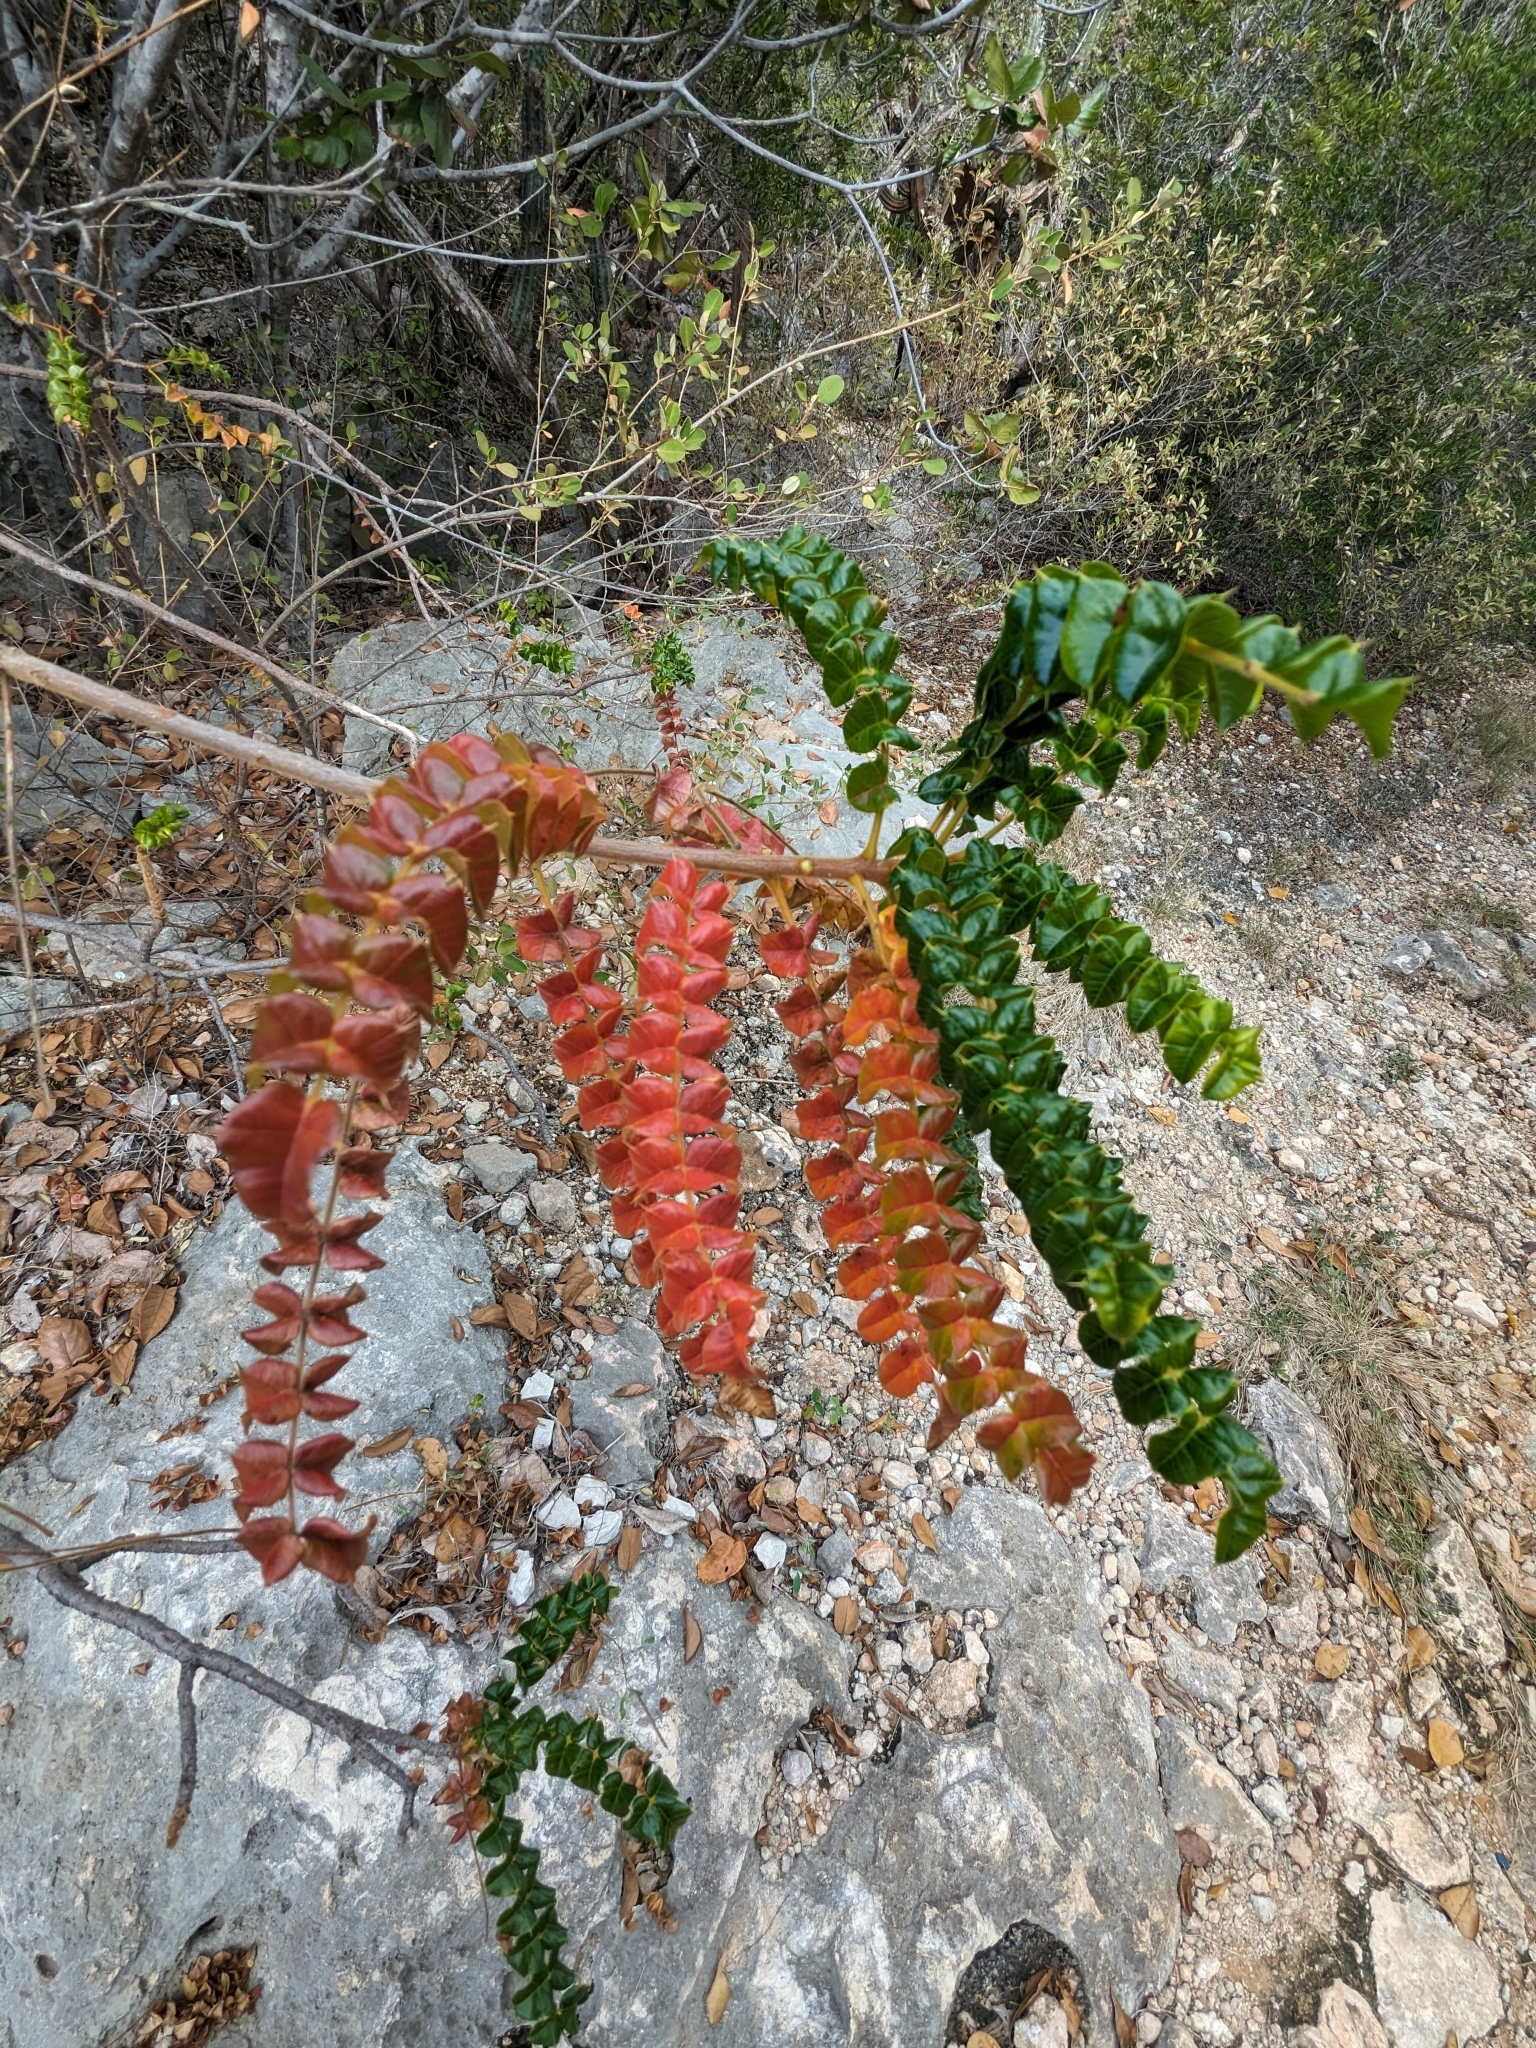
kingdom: Plantae
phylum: Tracheophyta
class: Magnoliopsida
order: Sapindales
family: Anacardiaceae
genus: Comocladia
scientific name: Comocladia dodonaea
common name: Poison ash
